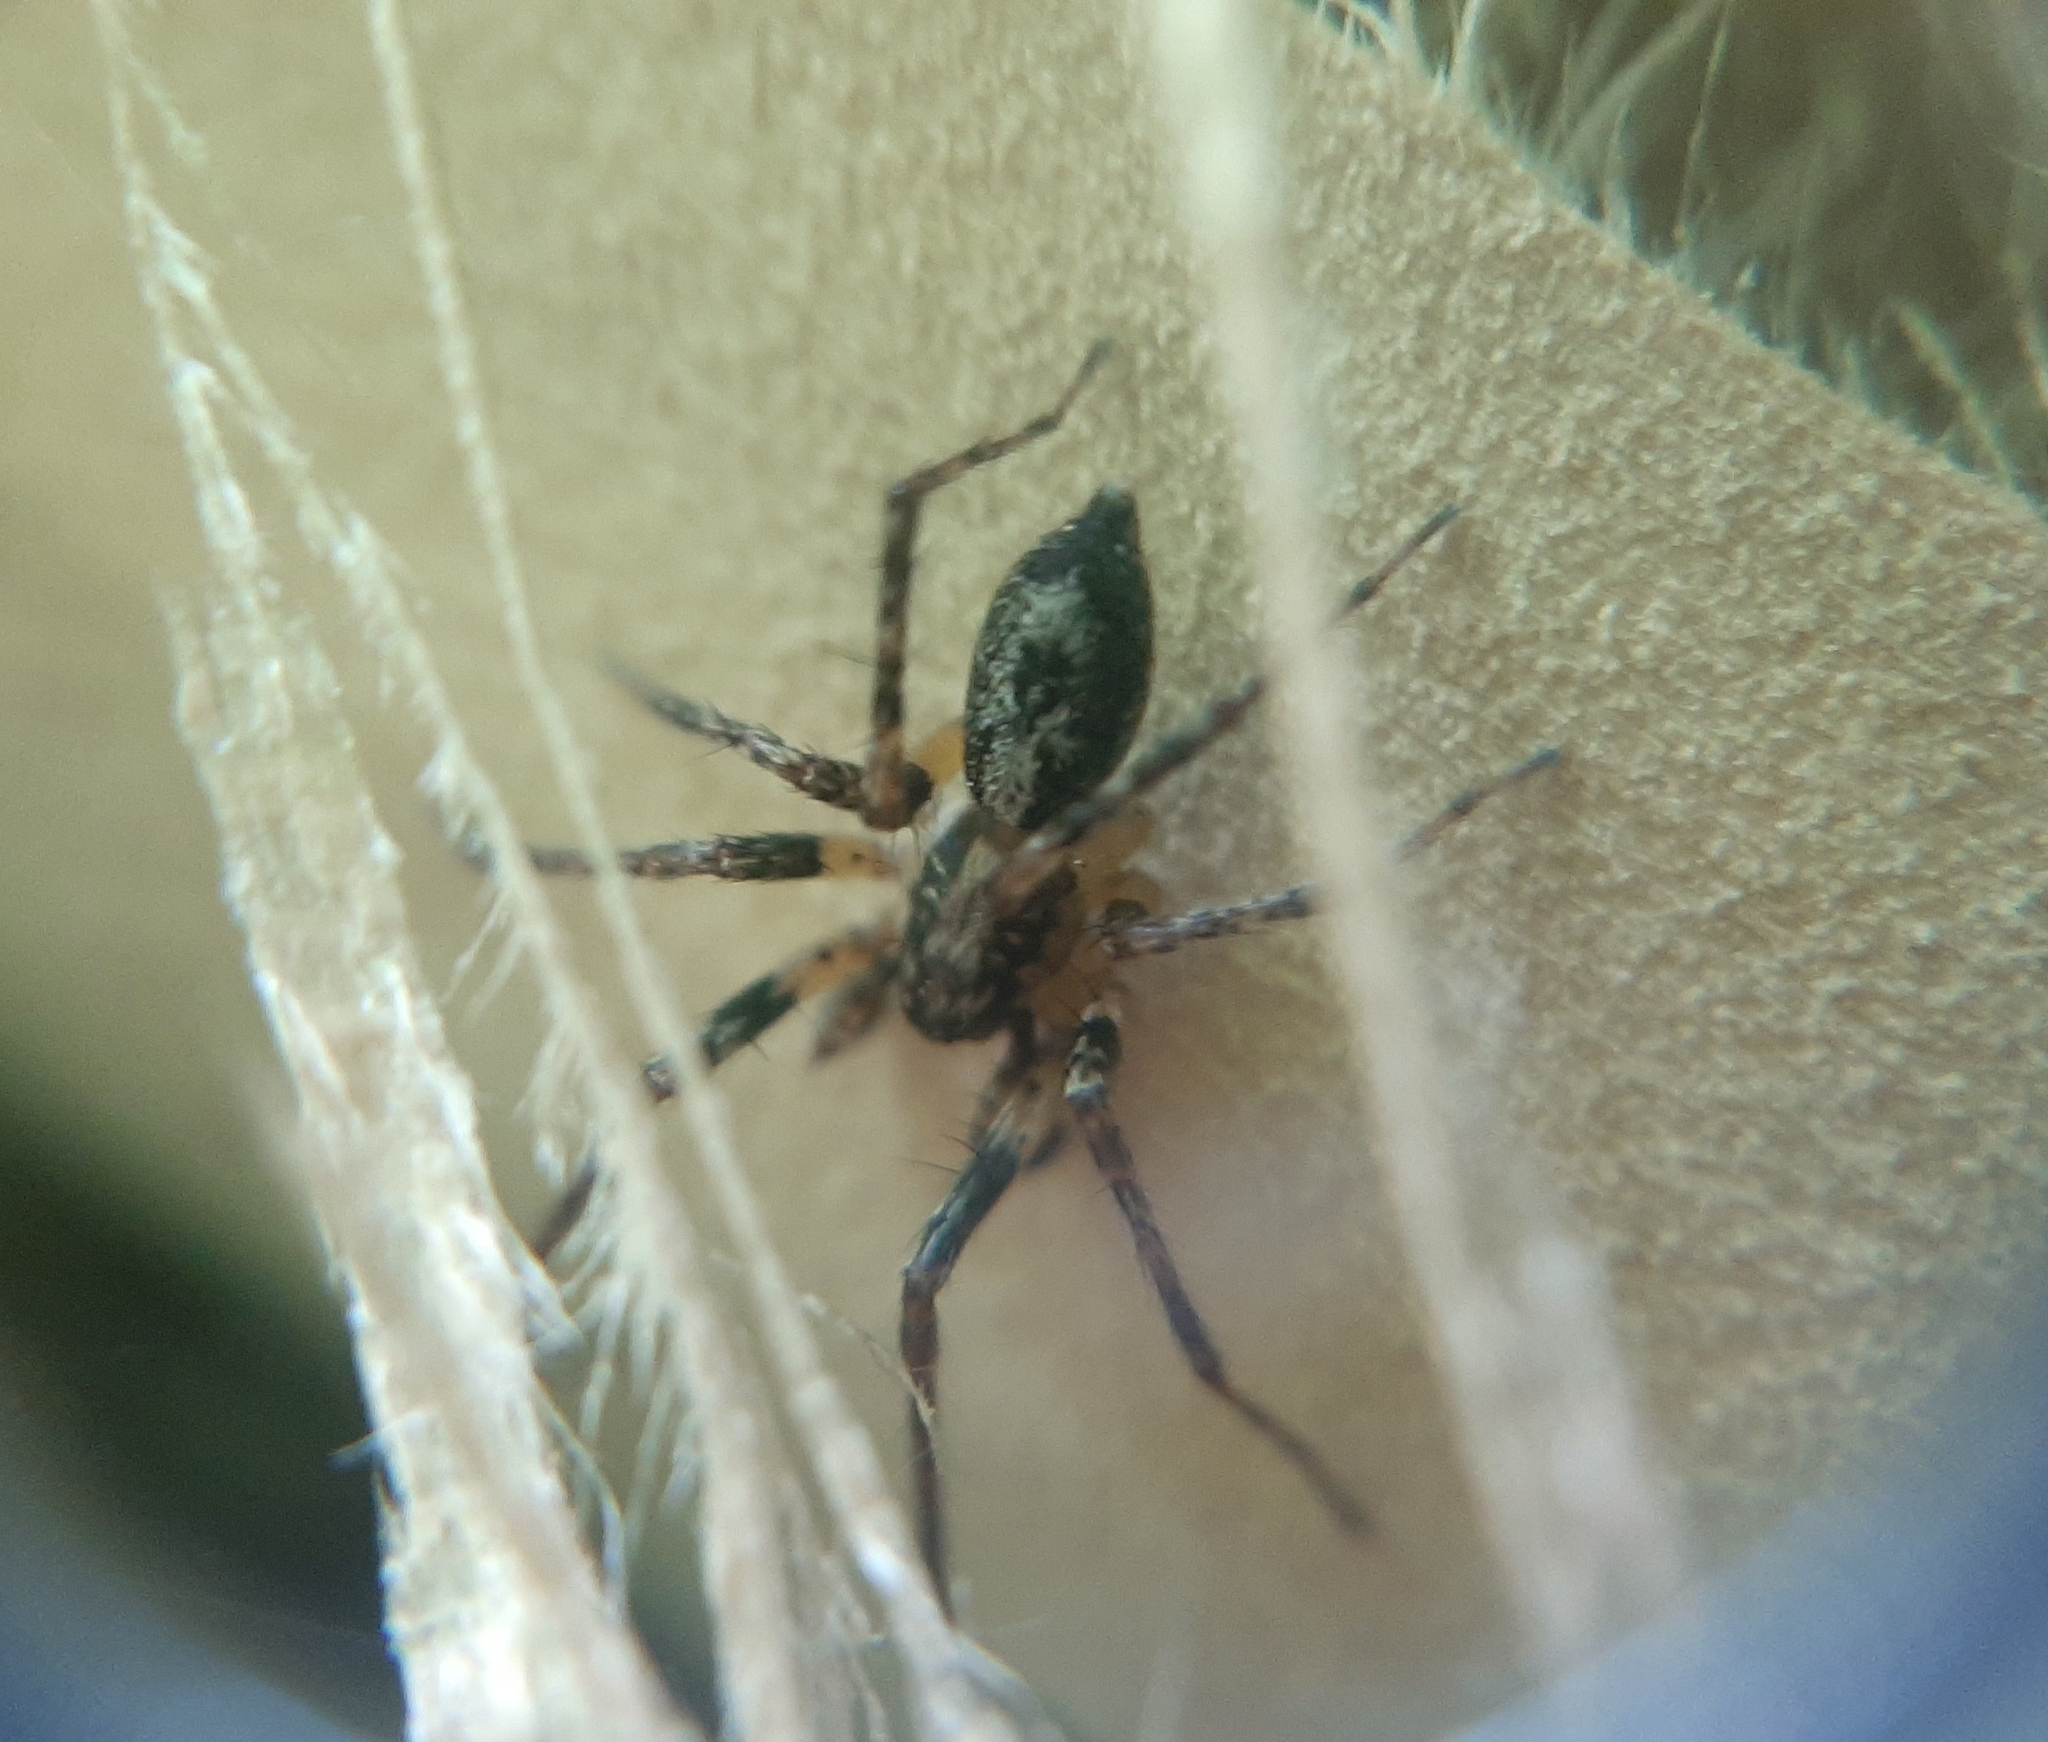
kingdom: Animalia
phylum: Arthropoda
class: Arachnida
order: Araneae
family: Anyphaenidae
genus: Anyphaena
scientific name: Anyphaena accentuata
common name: Buzzing spider
